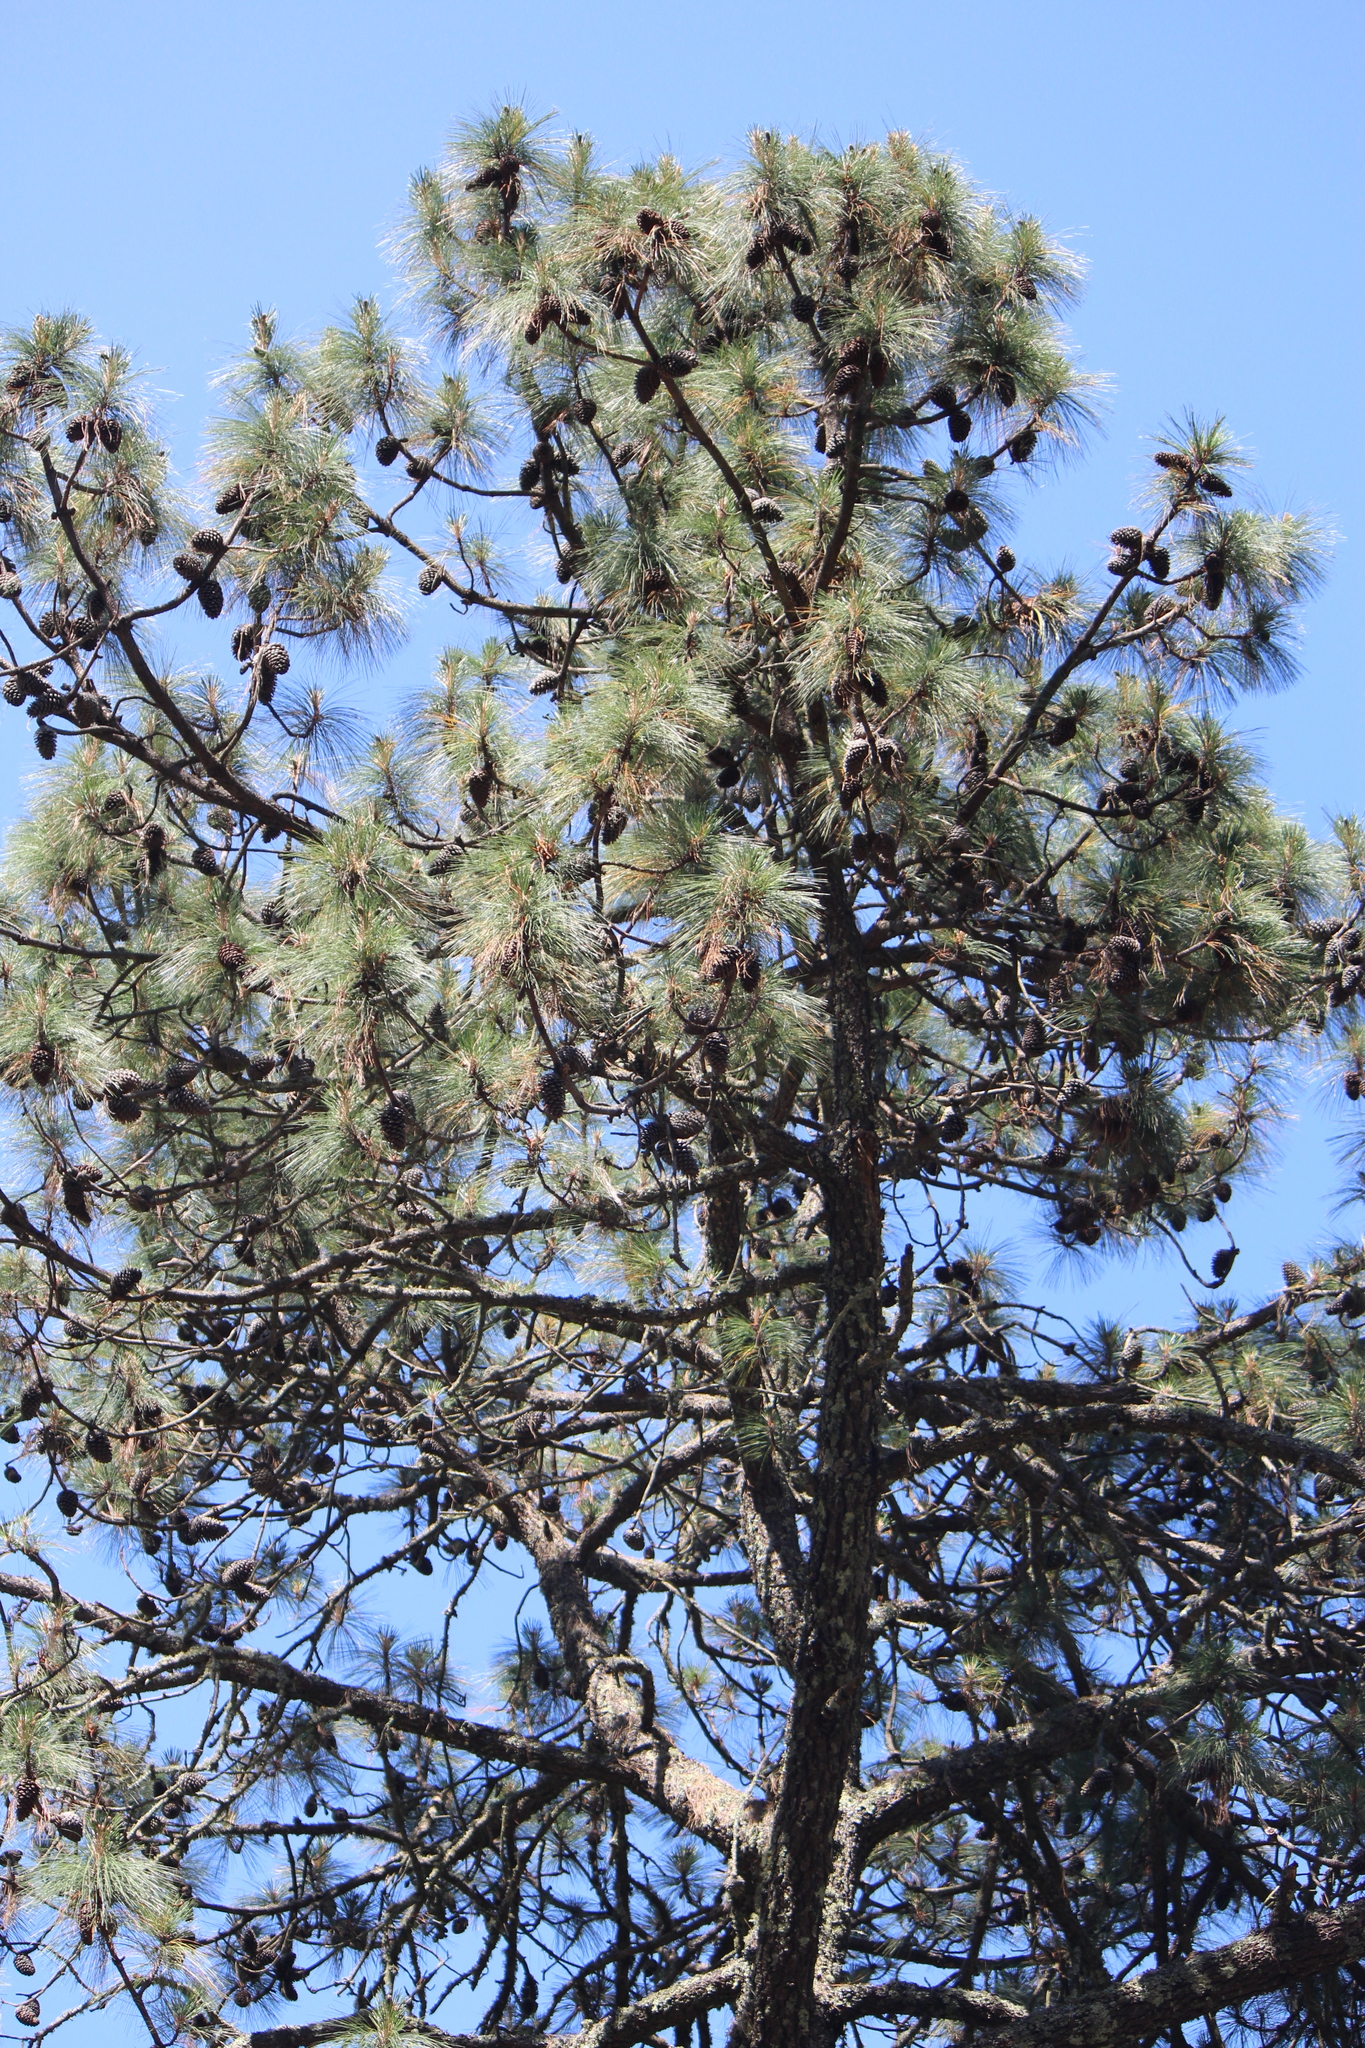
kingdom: Plantae
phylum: Tracheophyta
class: Pinopsida
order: Pinales
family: Pinaceae
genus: Pinus
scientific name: Pinus pseudostrobus
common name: False weymouth pine
